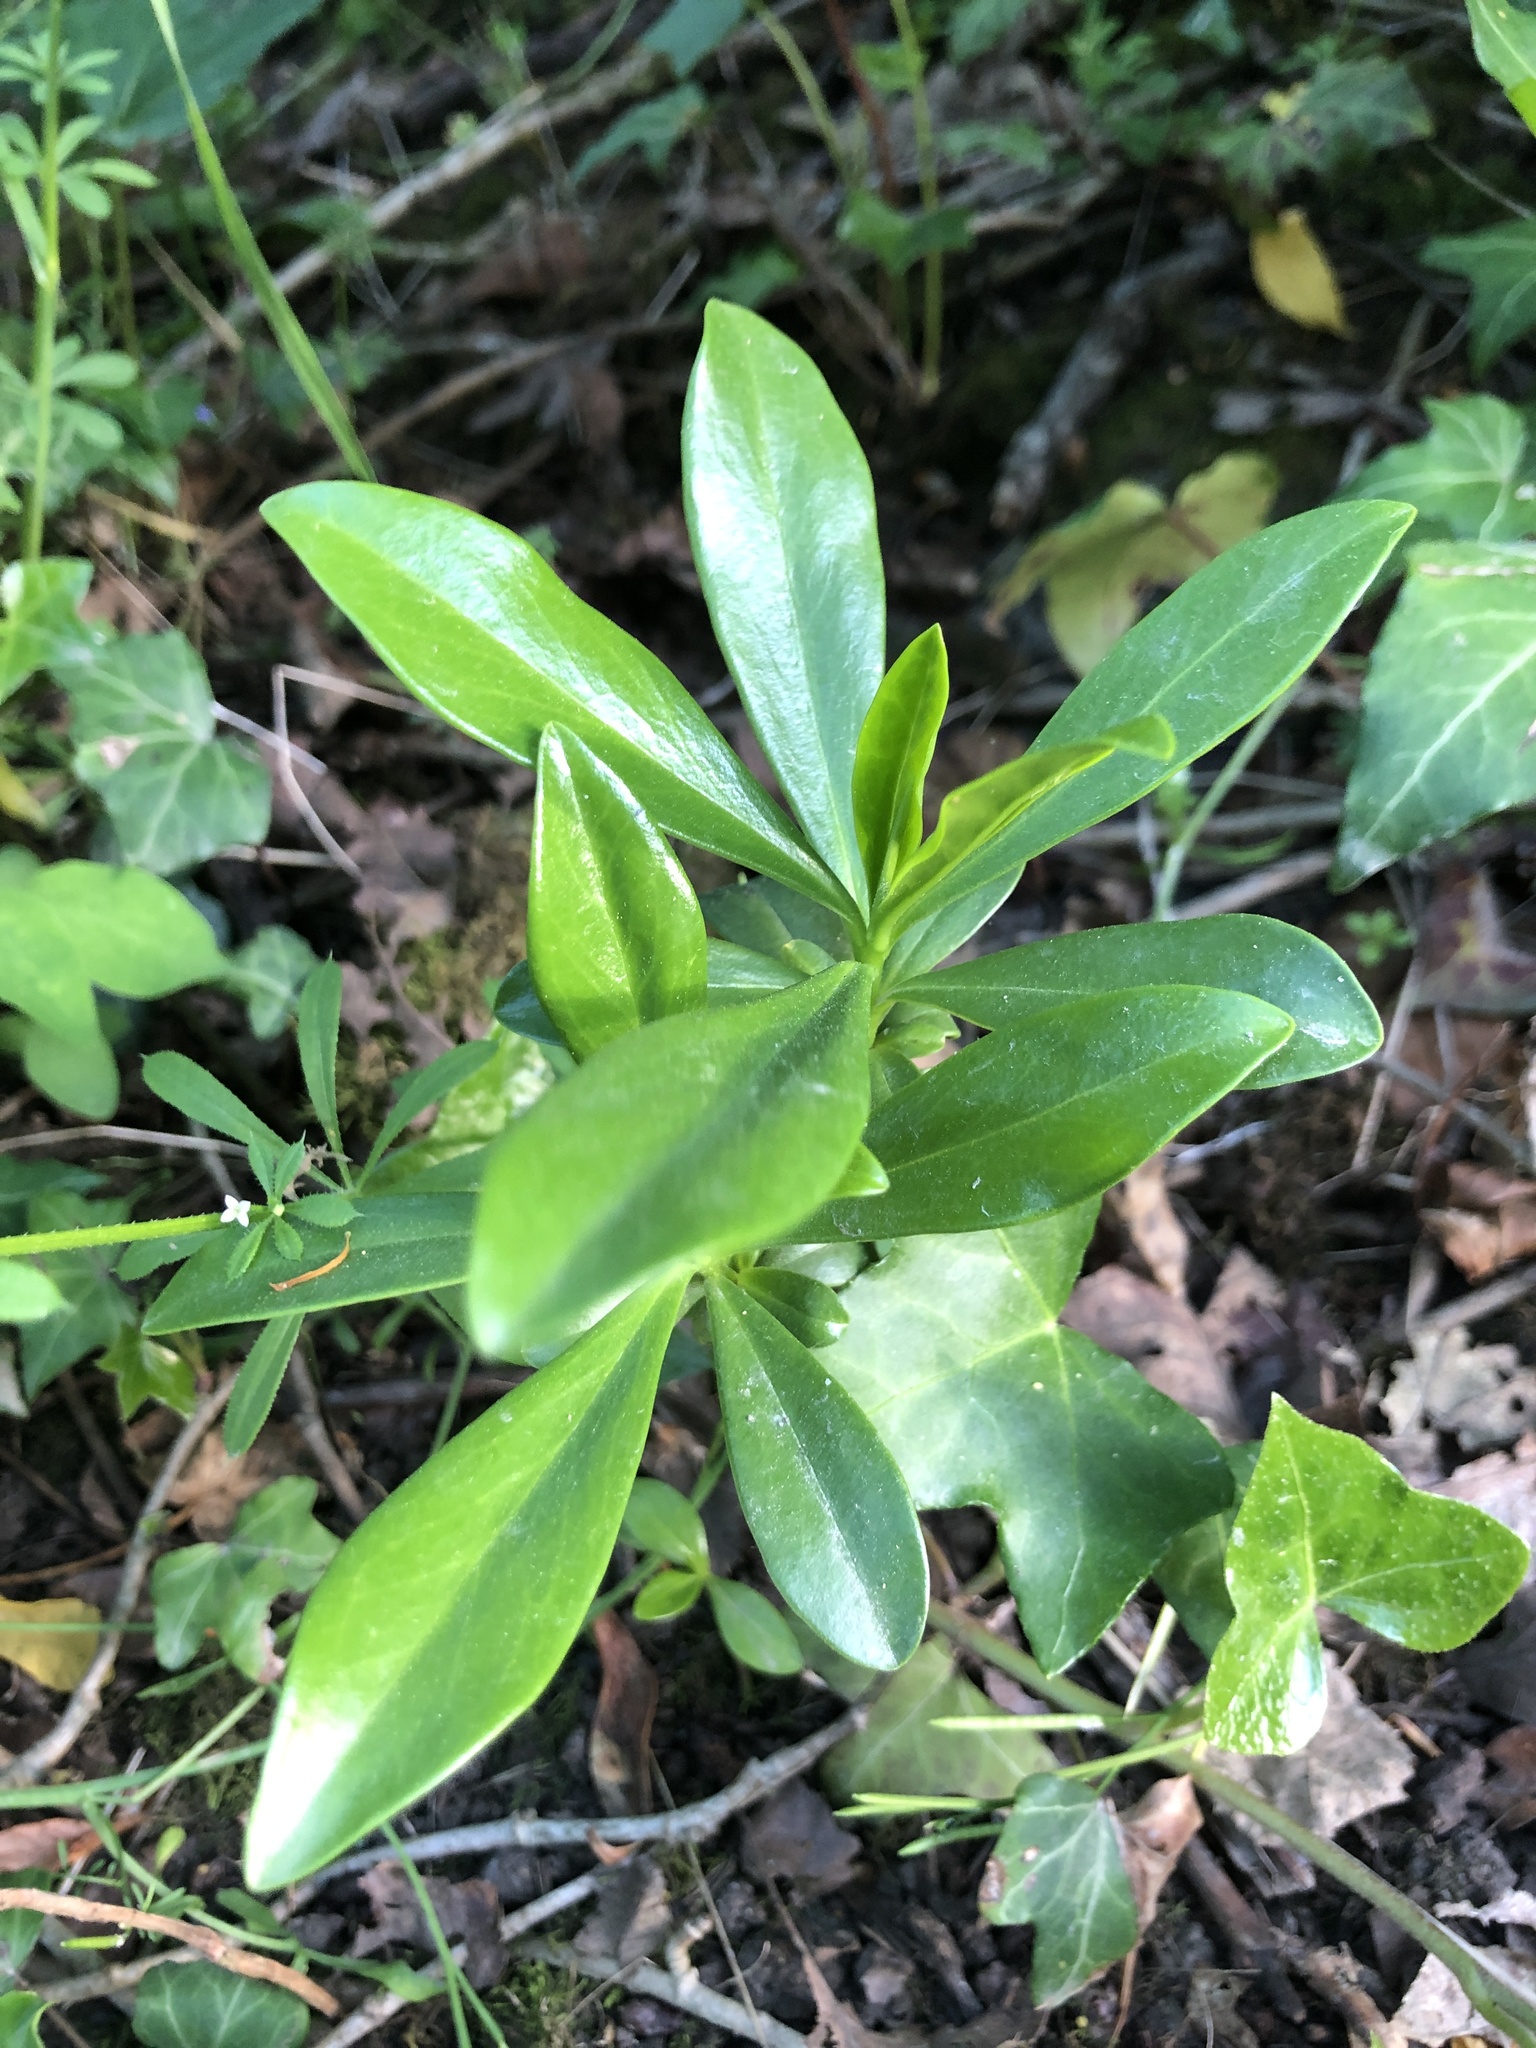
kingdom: Plantae
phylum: Tracheophyta
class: Magnoliopsida
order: Malvales
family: Thymelaeaceae
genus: Daphne
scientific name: Daphne laureola
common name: Spurge-laurel
